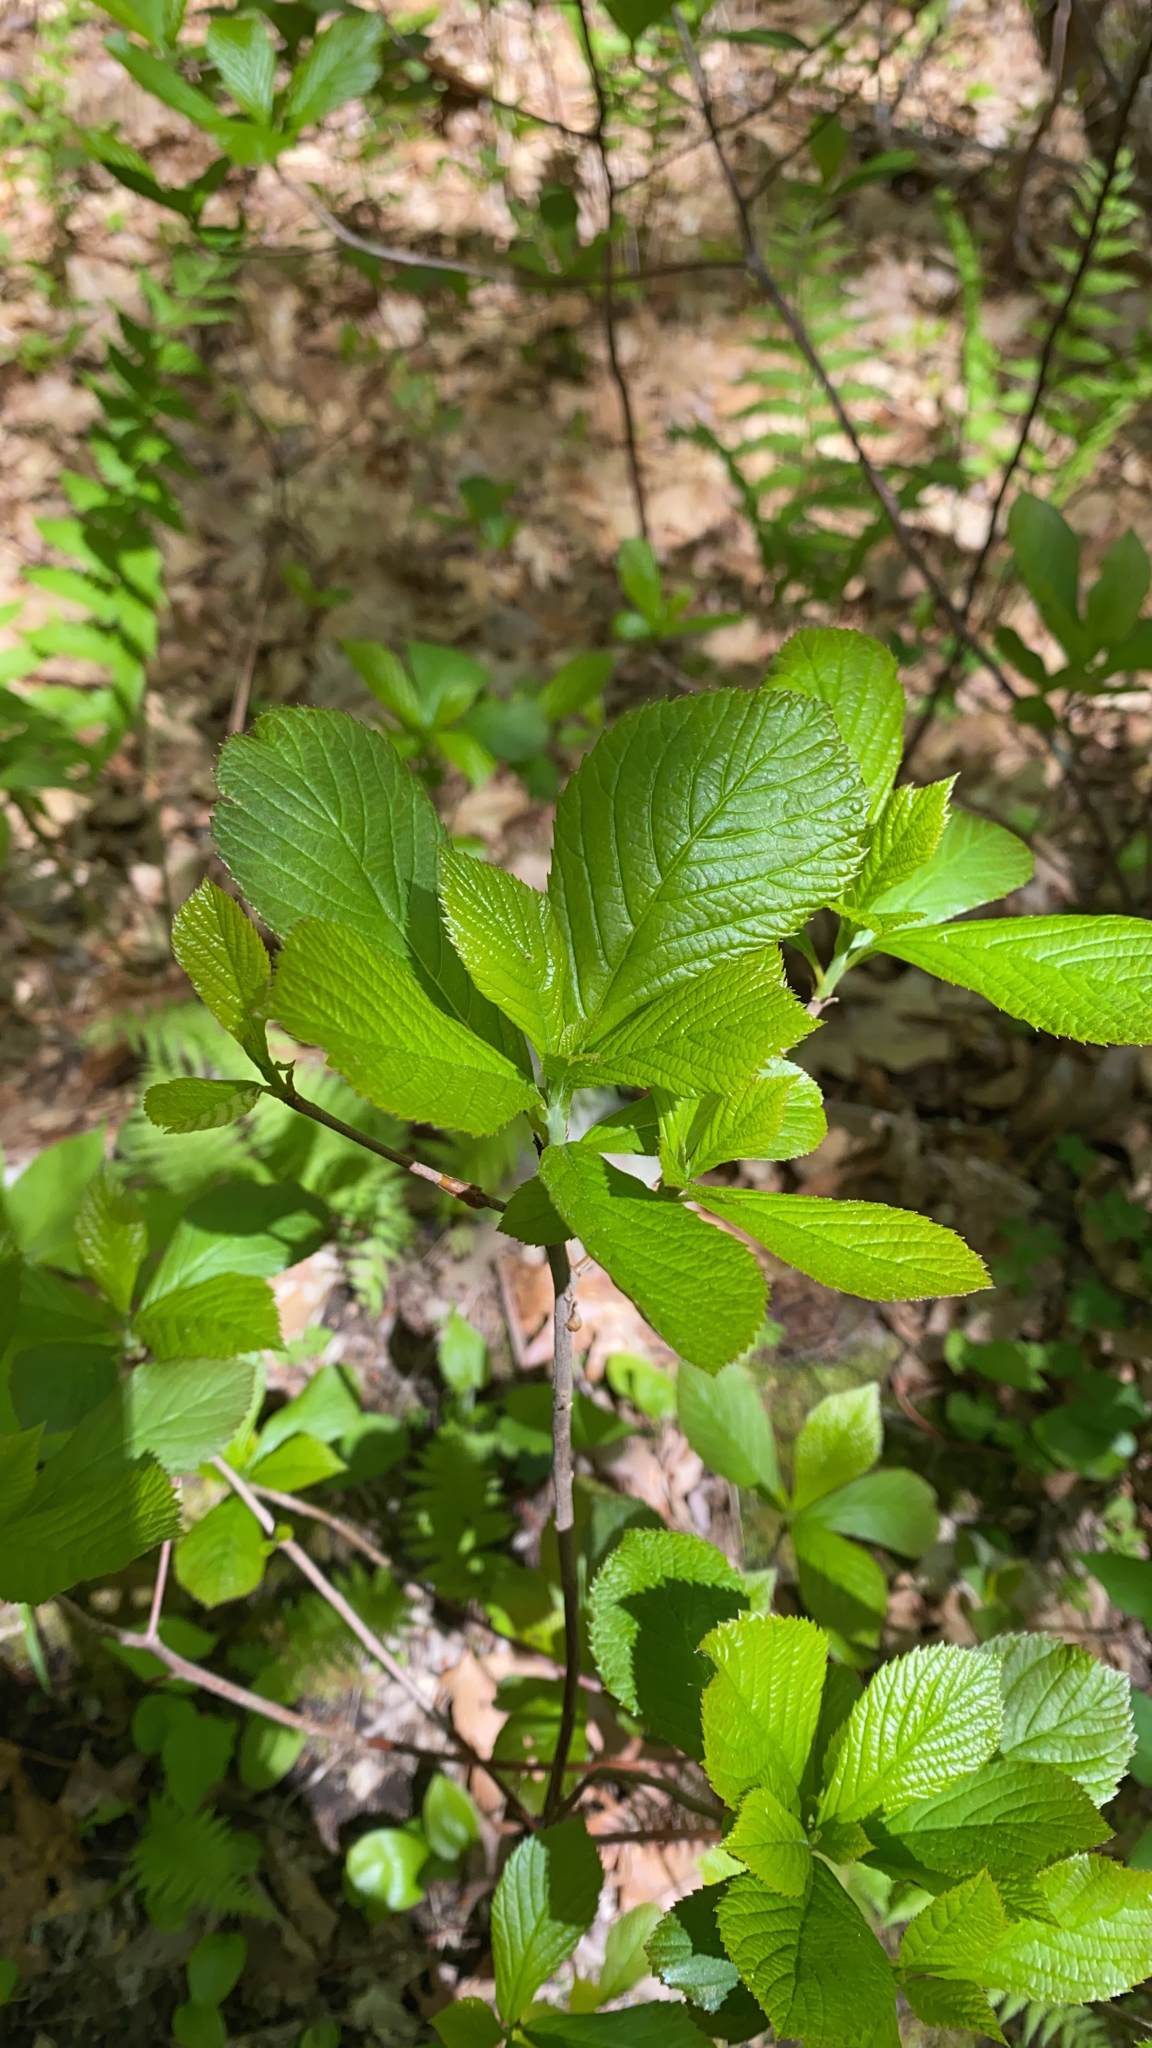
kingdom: Plantae
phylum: Tracheophyta
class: Magnoliopsida
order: Ericales
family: Clethraceae
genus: Clethra
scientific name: Clethra alnifolia
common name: Sweet pepperbush
